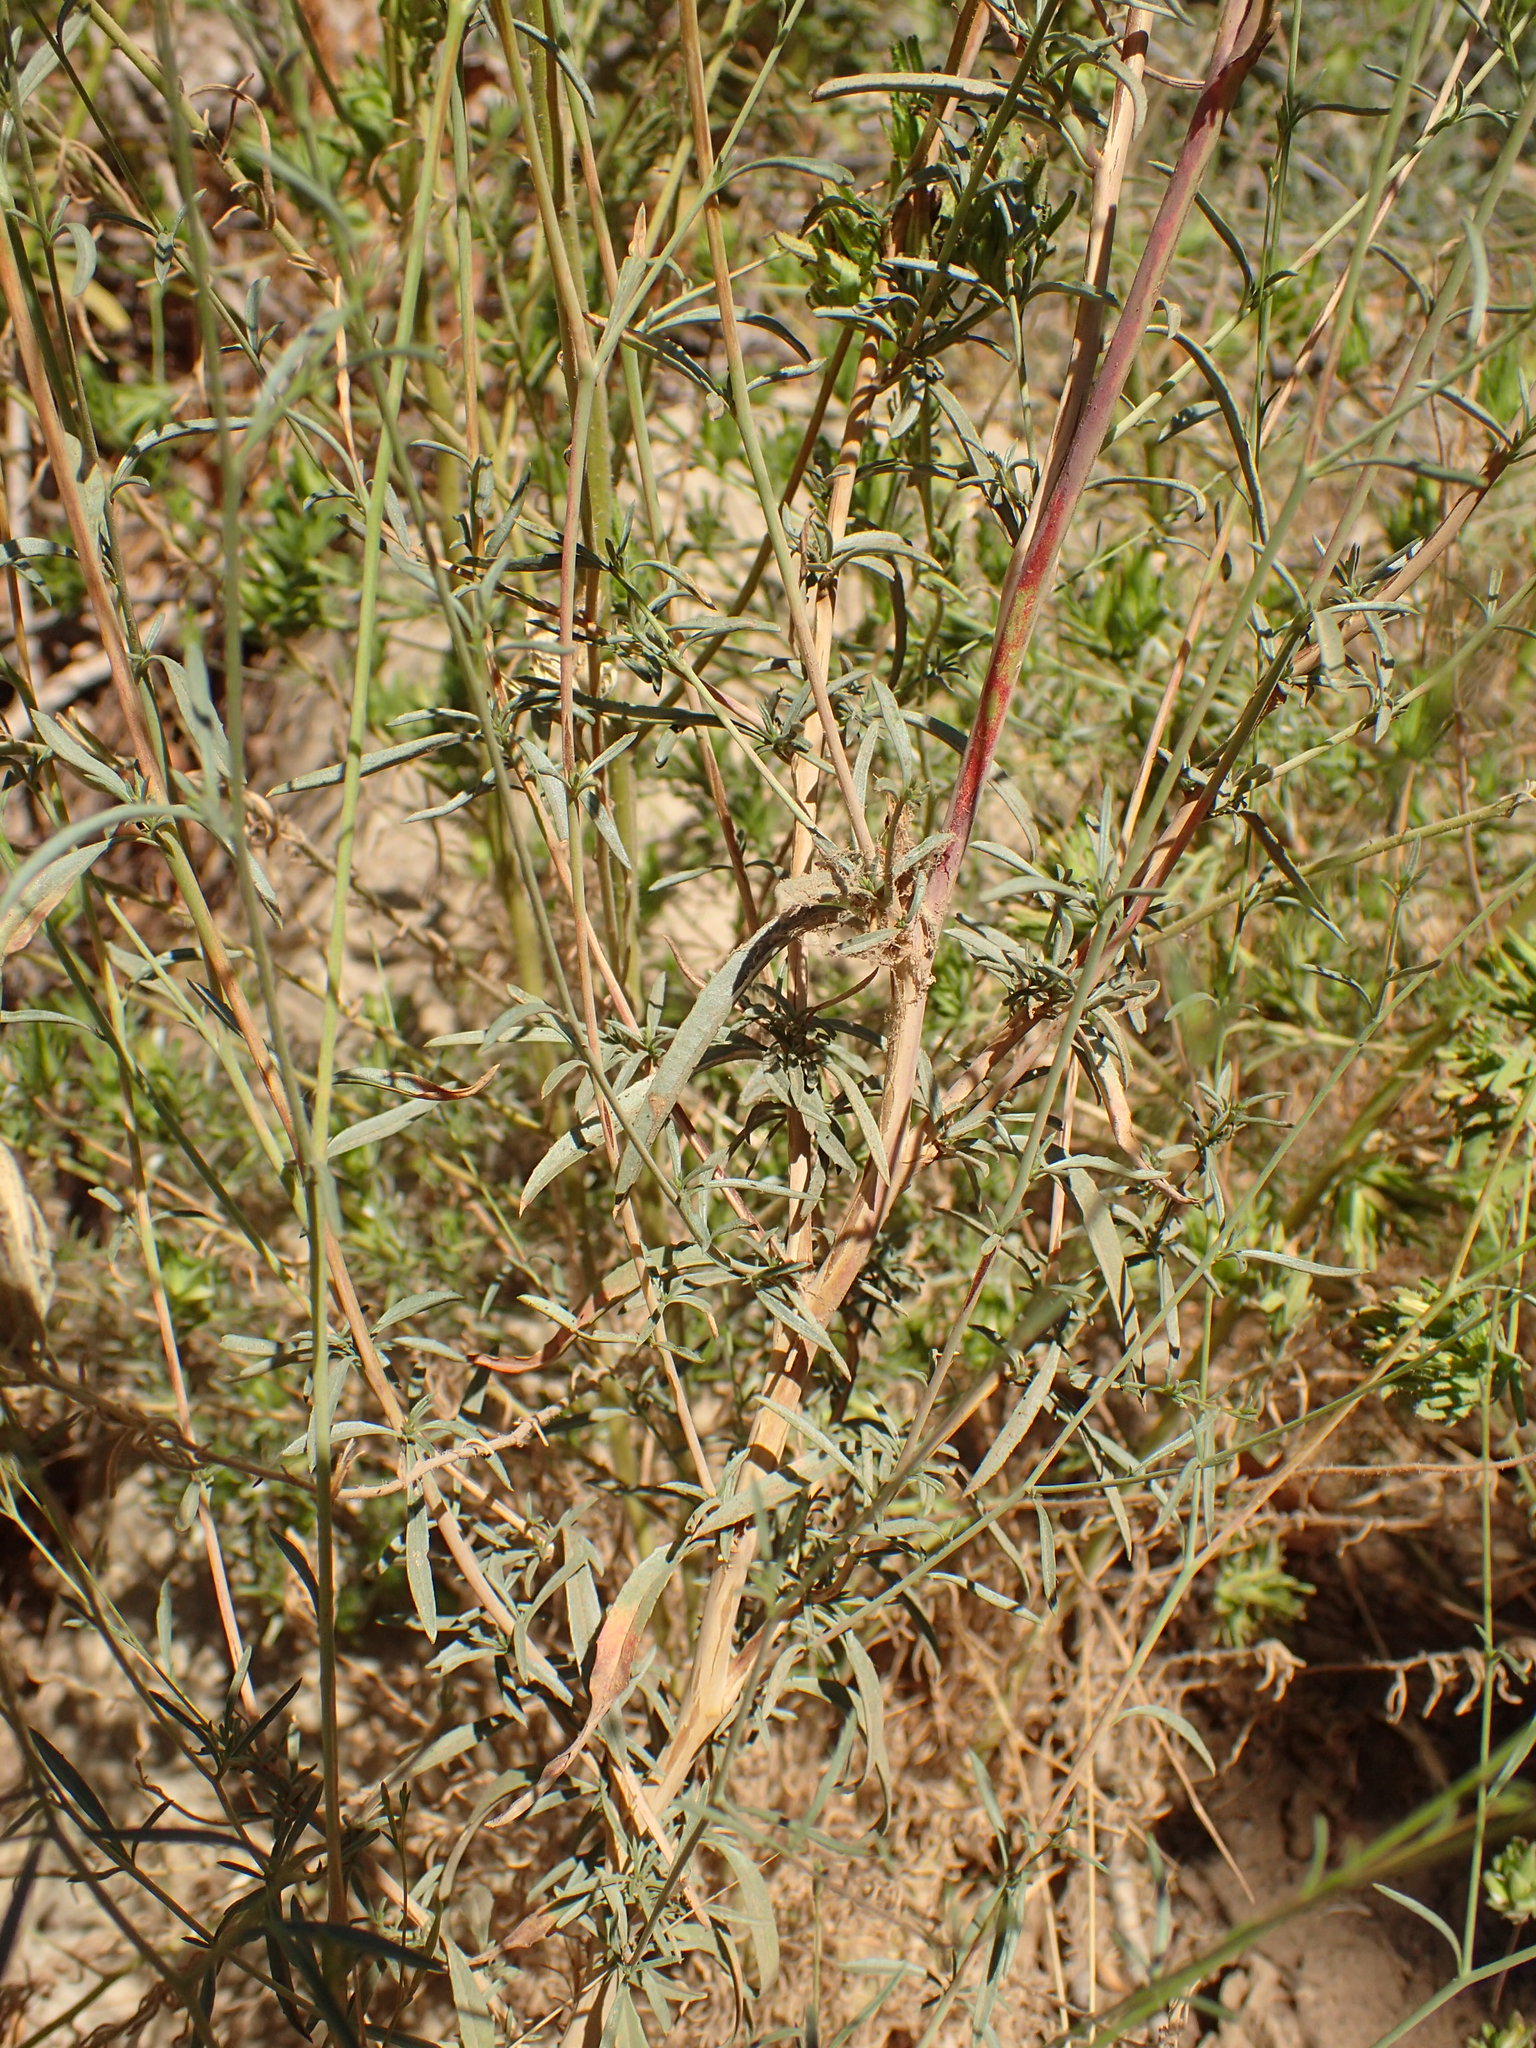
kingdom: Plantae
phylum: Tracheophyta
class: Magnoliopsida
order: Myrtales
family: Onagraceae
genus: Epilobium
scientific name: Epilobium brachycarpum
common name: Annual willowherb
